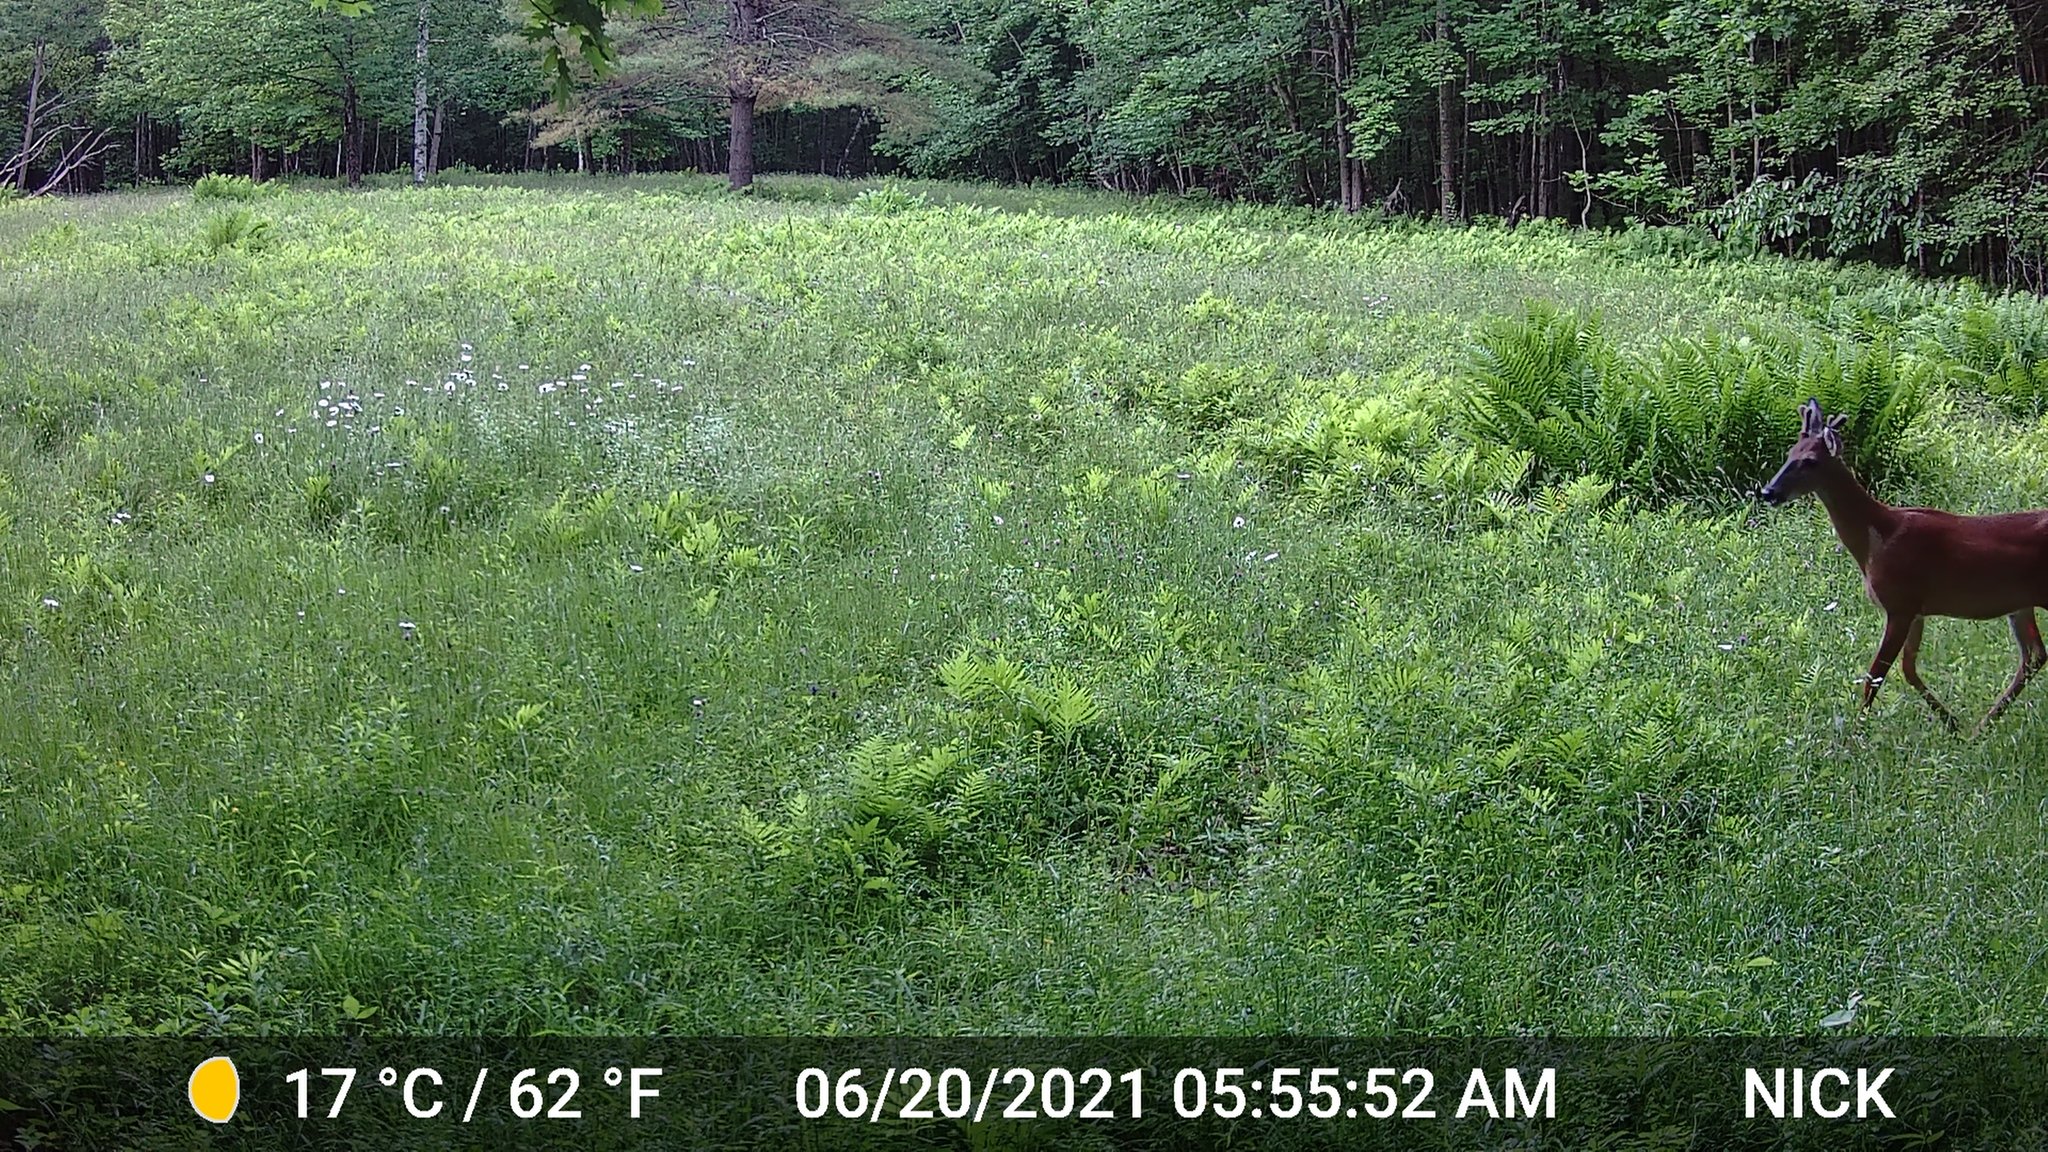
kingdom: Animalia
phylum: Chordata
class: Mammalia
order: Artiodactyla
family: Cervidae
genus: Odocoileus
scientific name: Odocoileus virginianus
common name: White-tailed deer
